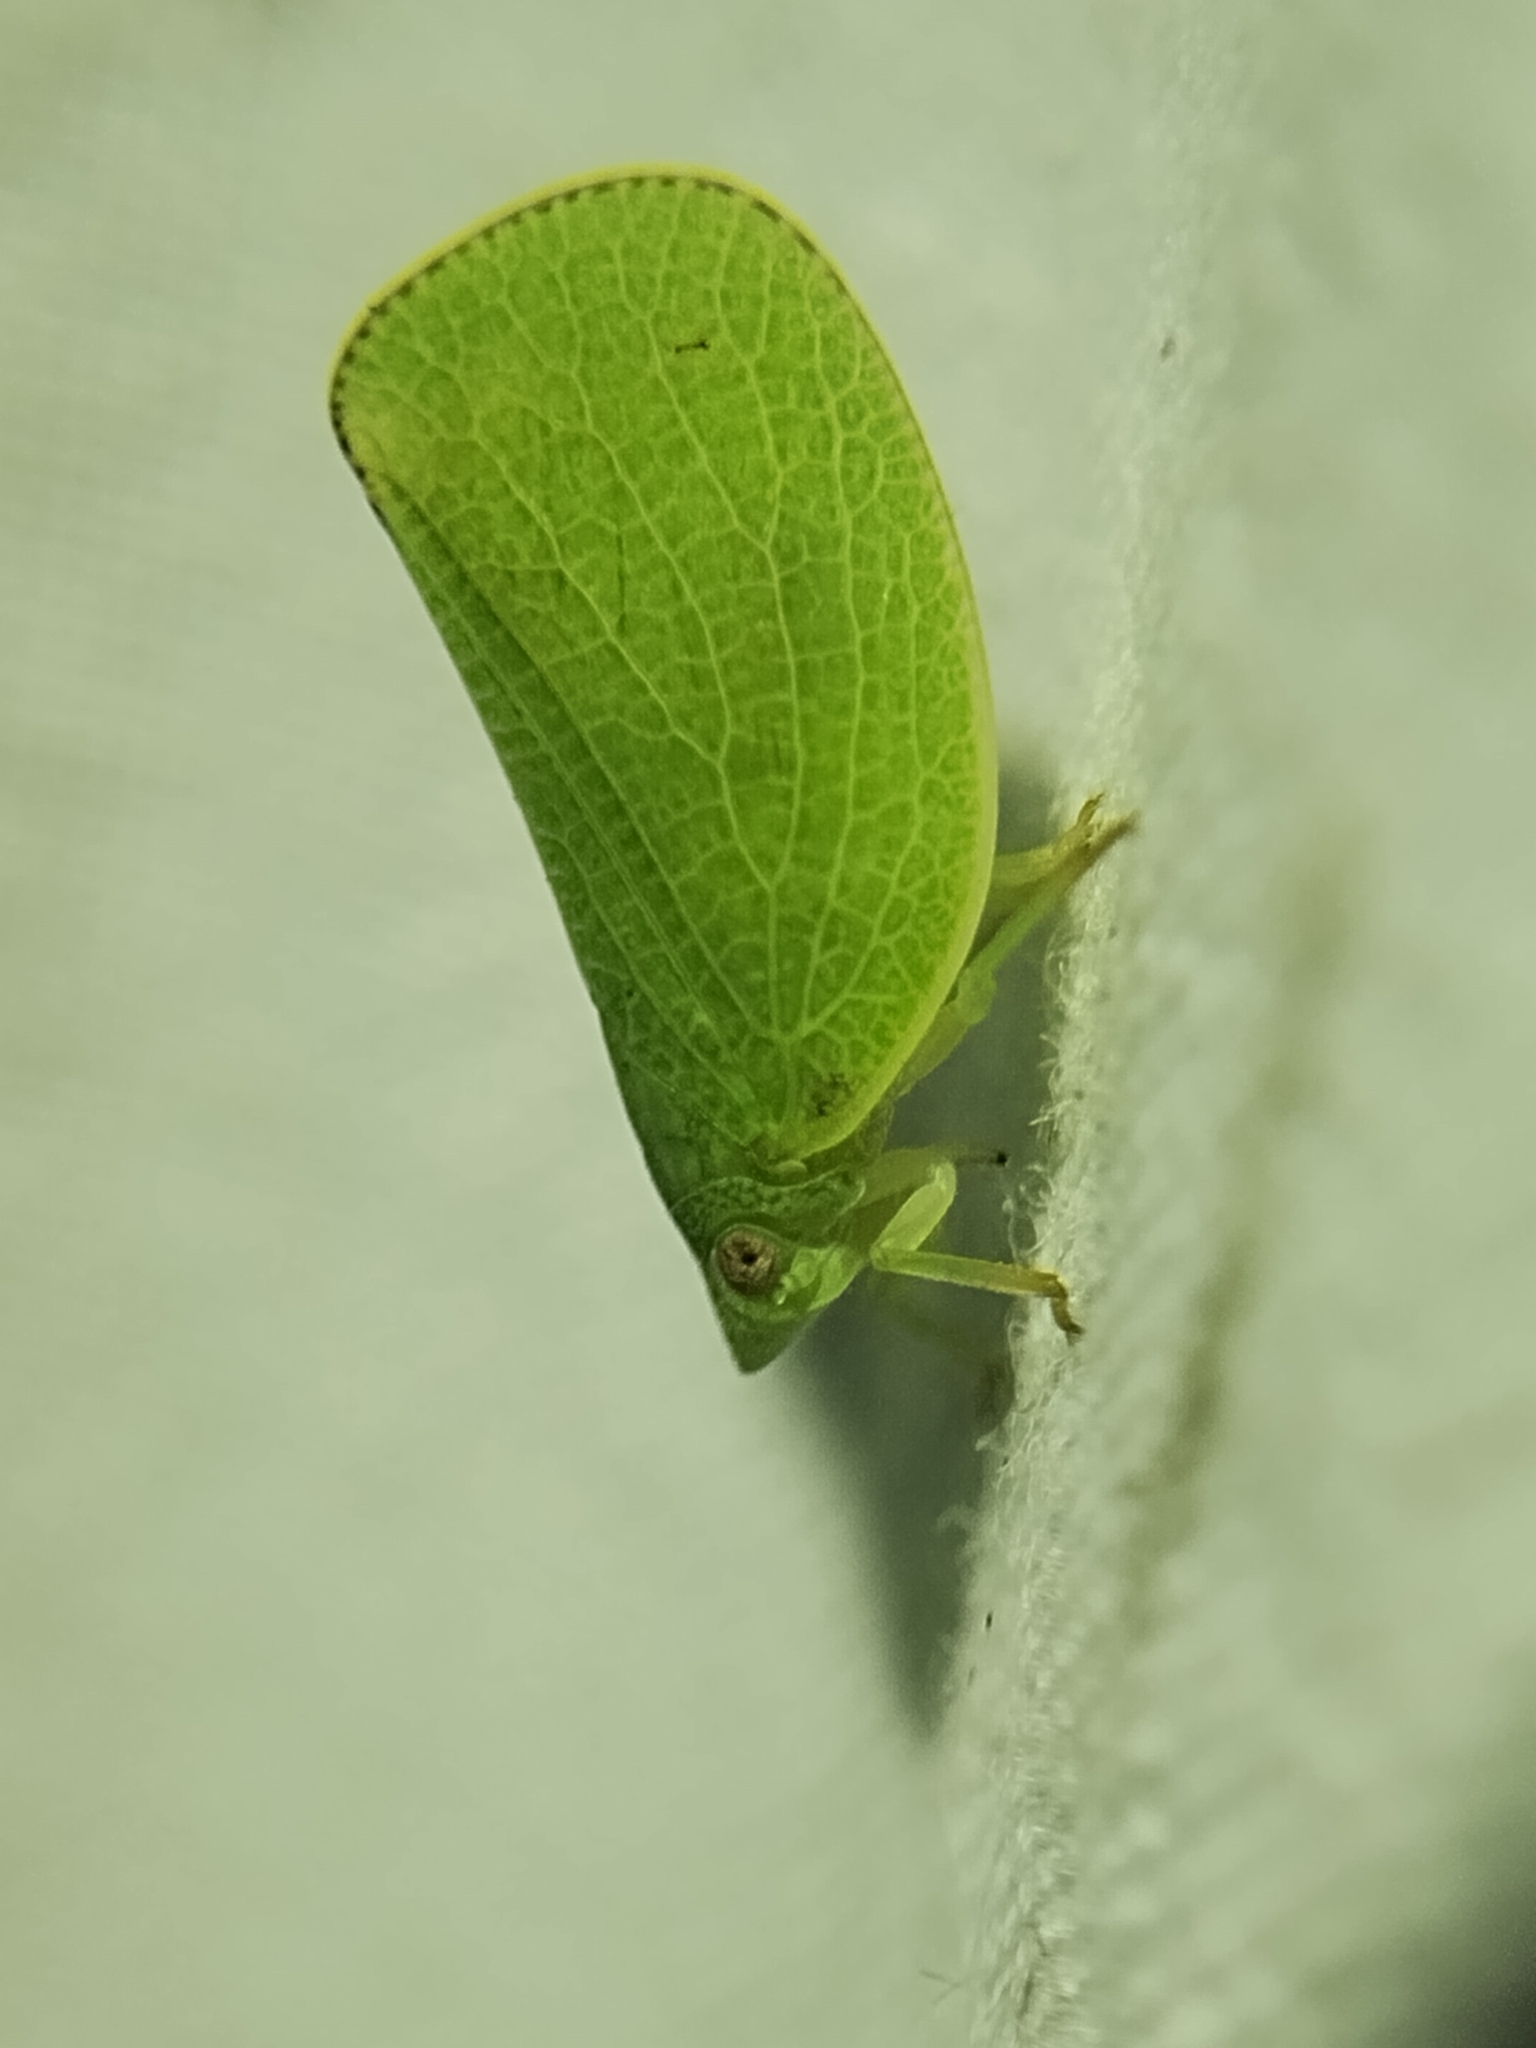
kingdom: Animalia
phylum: Arthropoda
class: Insecta
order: Hemiptera
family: Acanaloniidae
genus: Acanalonia
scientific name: Acanalonia conica
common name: Green cone-headed planthopper
